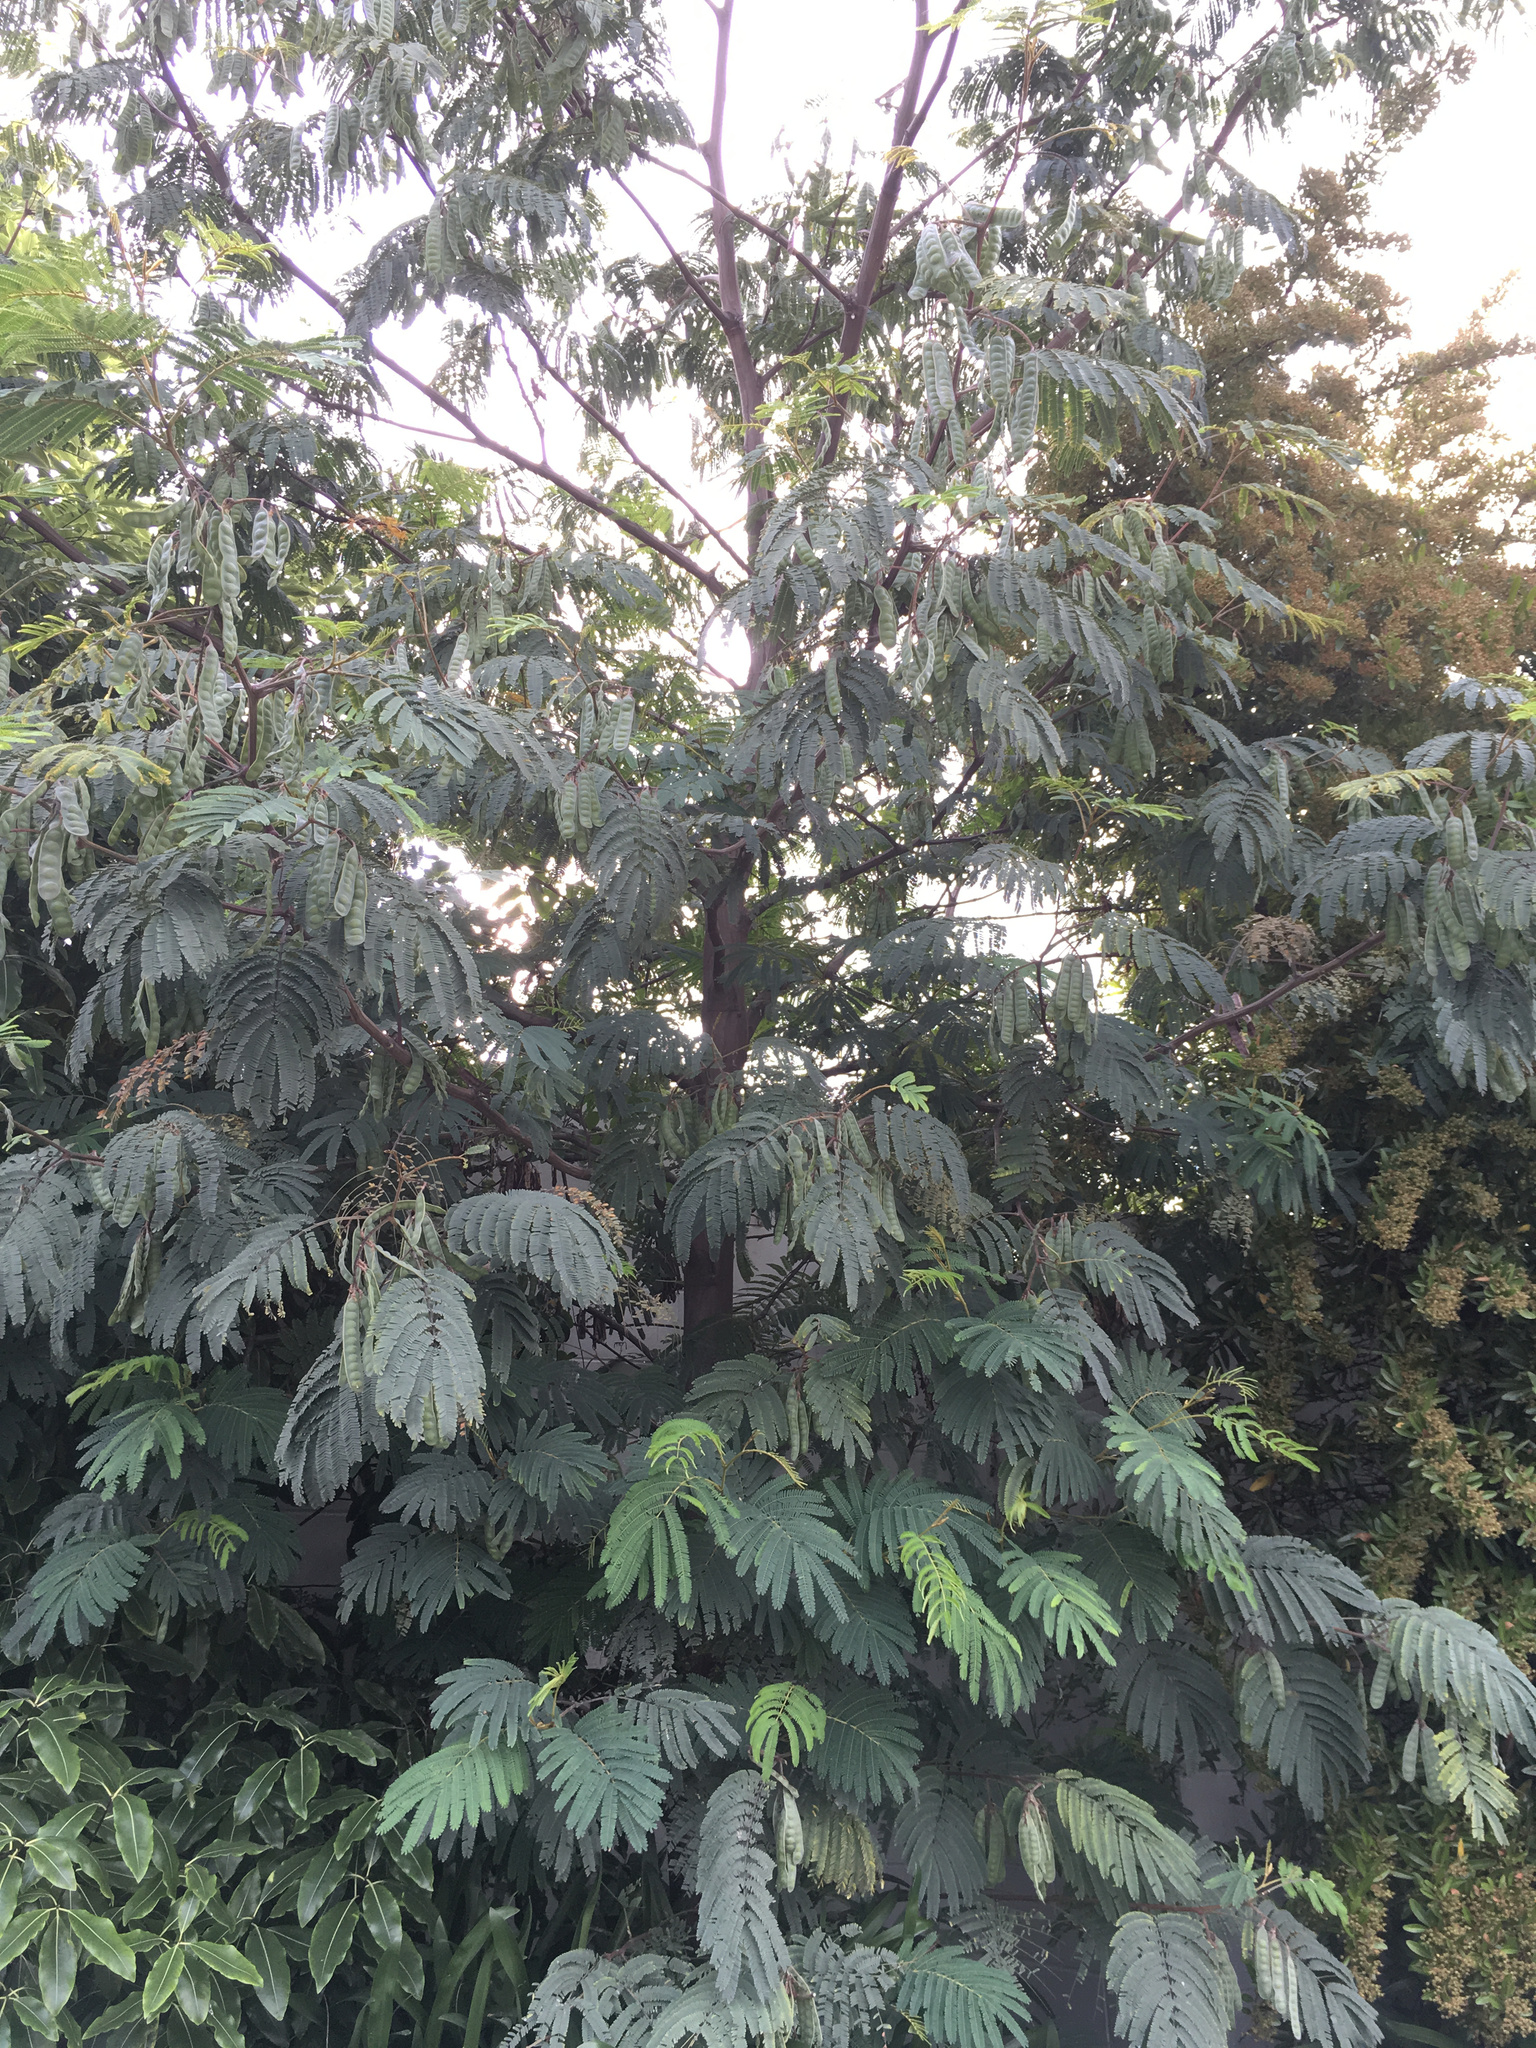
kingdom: Plantae
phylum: Tracheophyta
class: Magnoliopsida
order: Fabales
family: Fabaceae
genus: Paraserianthes
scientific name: Paraserianthes lophantha
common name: Plume albizia
